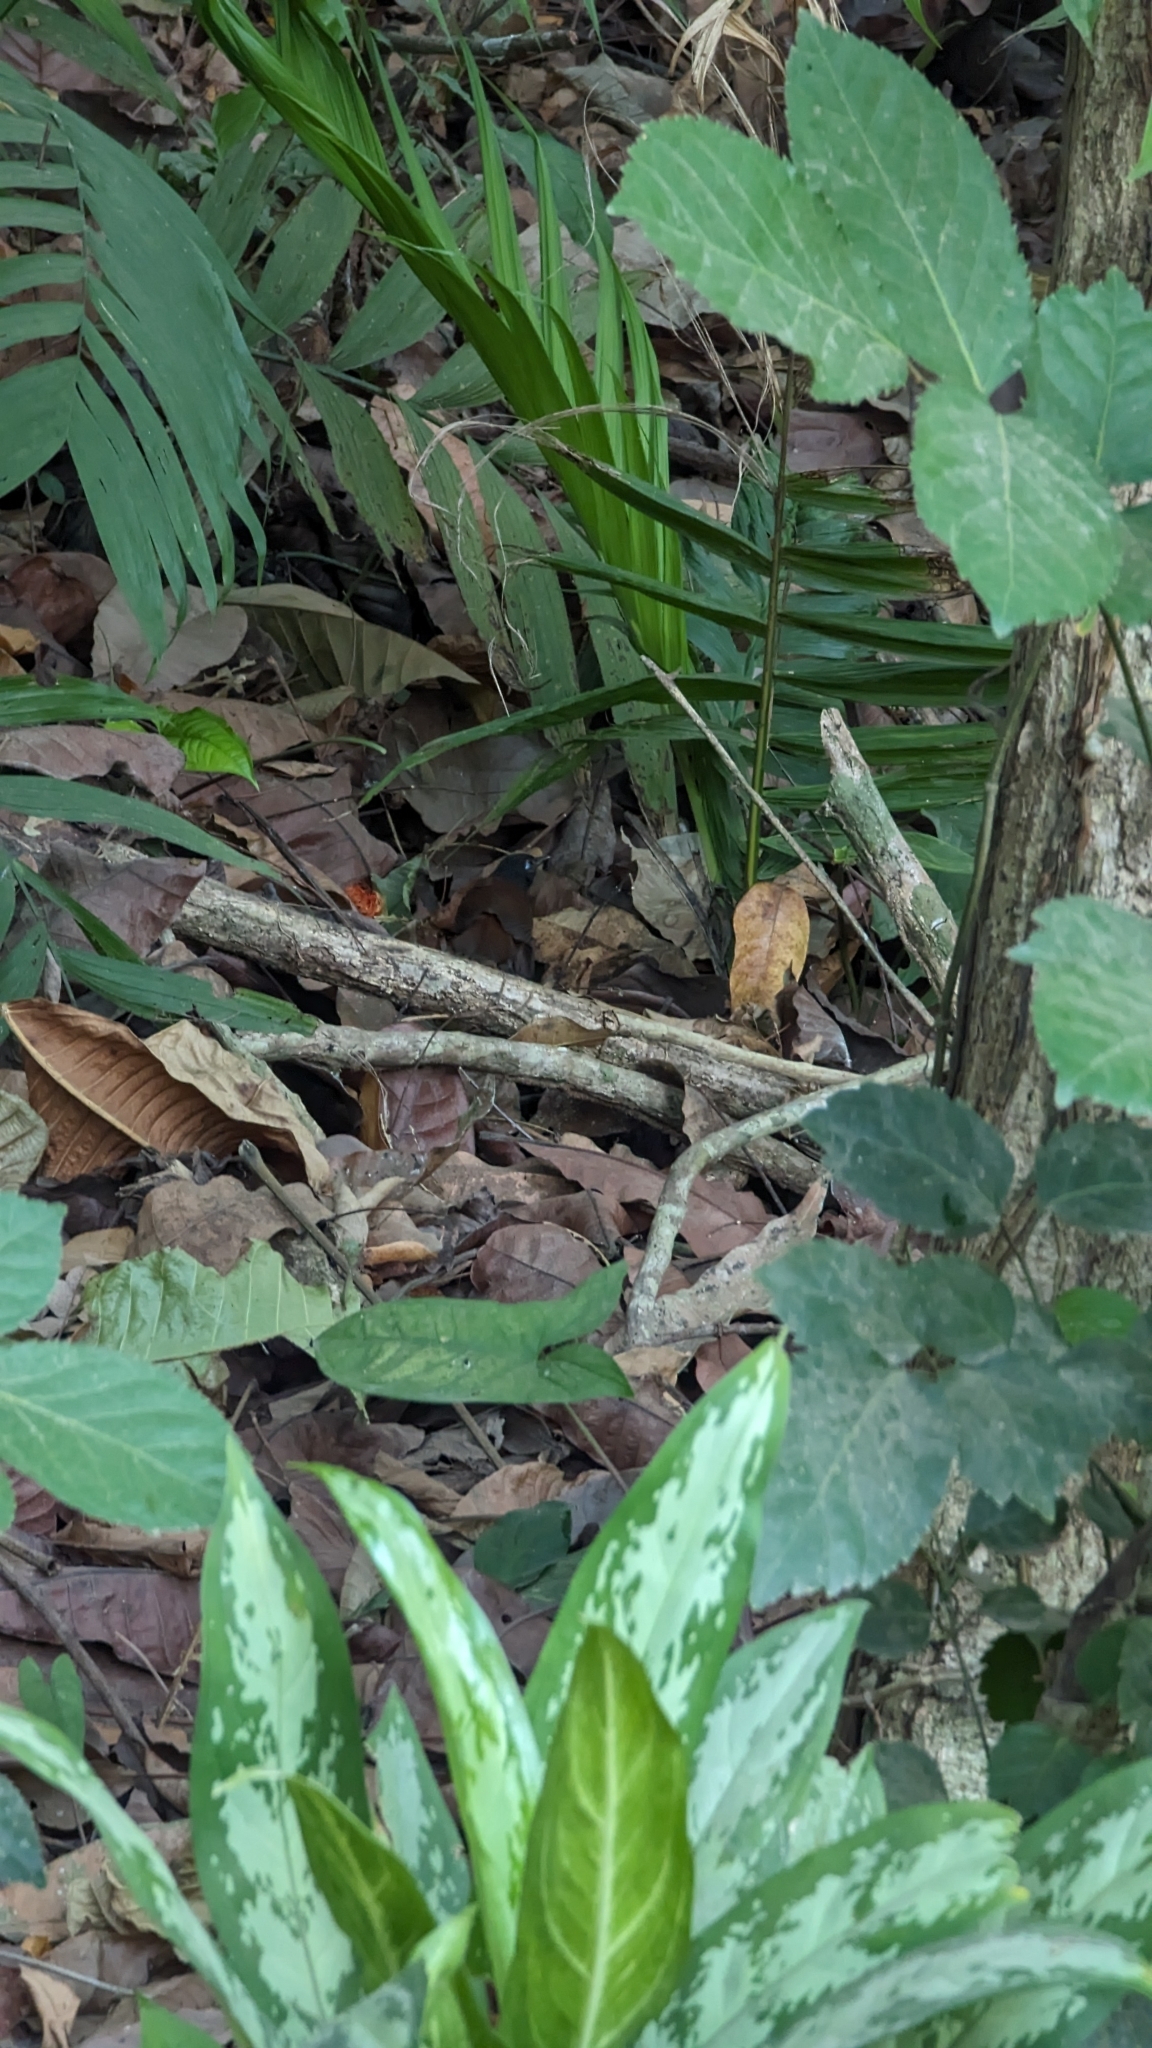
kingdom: Animalia
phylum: Chordata
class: Aves
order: Passeriformes
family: Thamnophilidae
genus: Myrmeciza
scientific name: Myrmeciza exsul
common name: Chestnut-backed antbird
